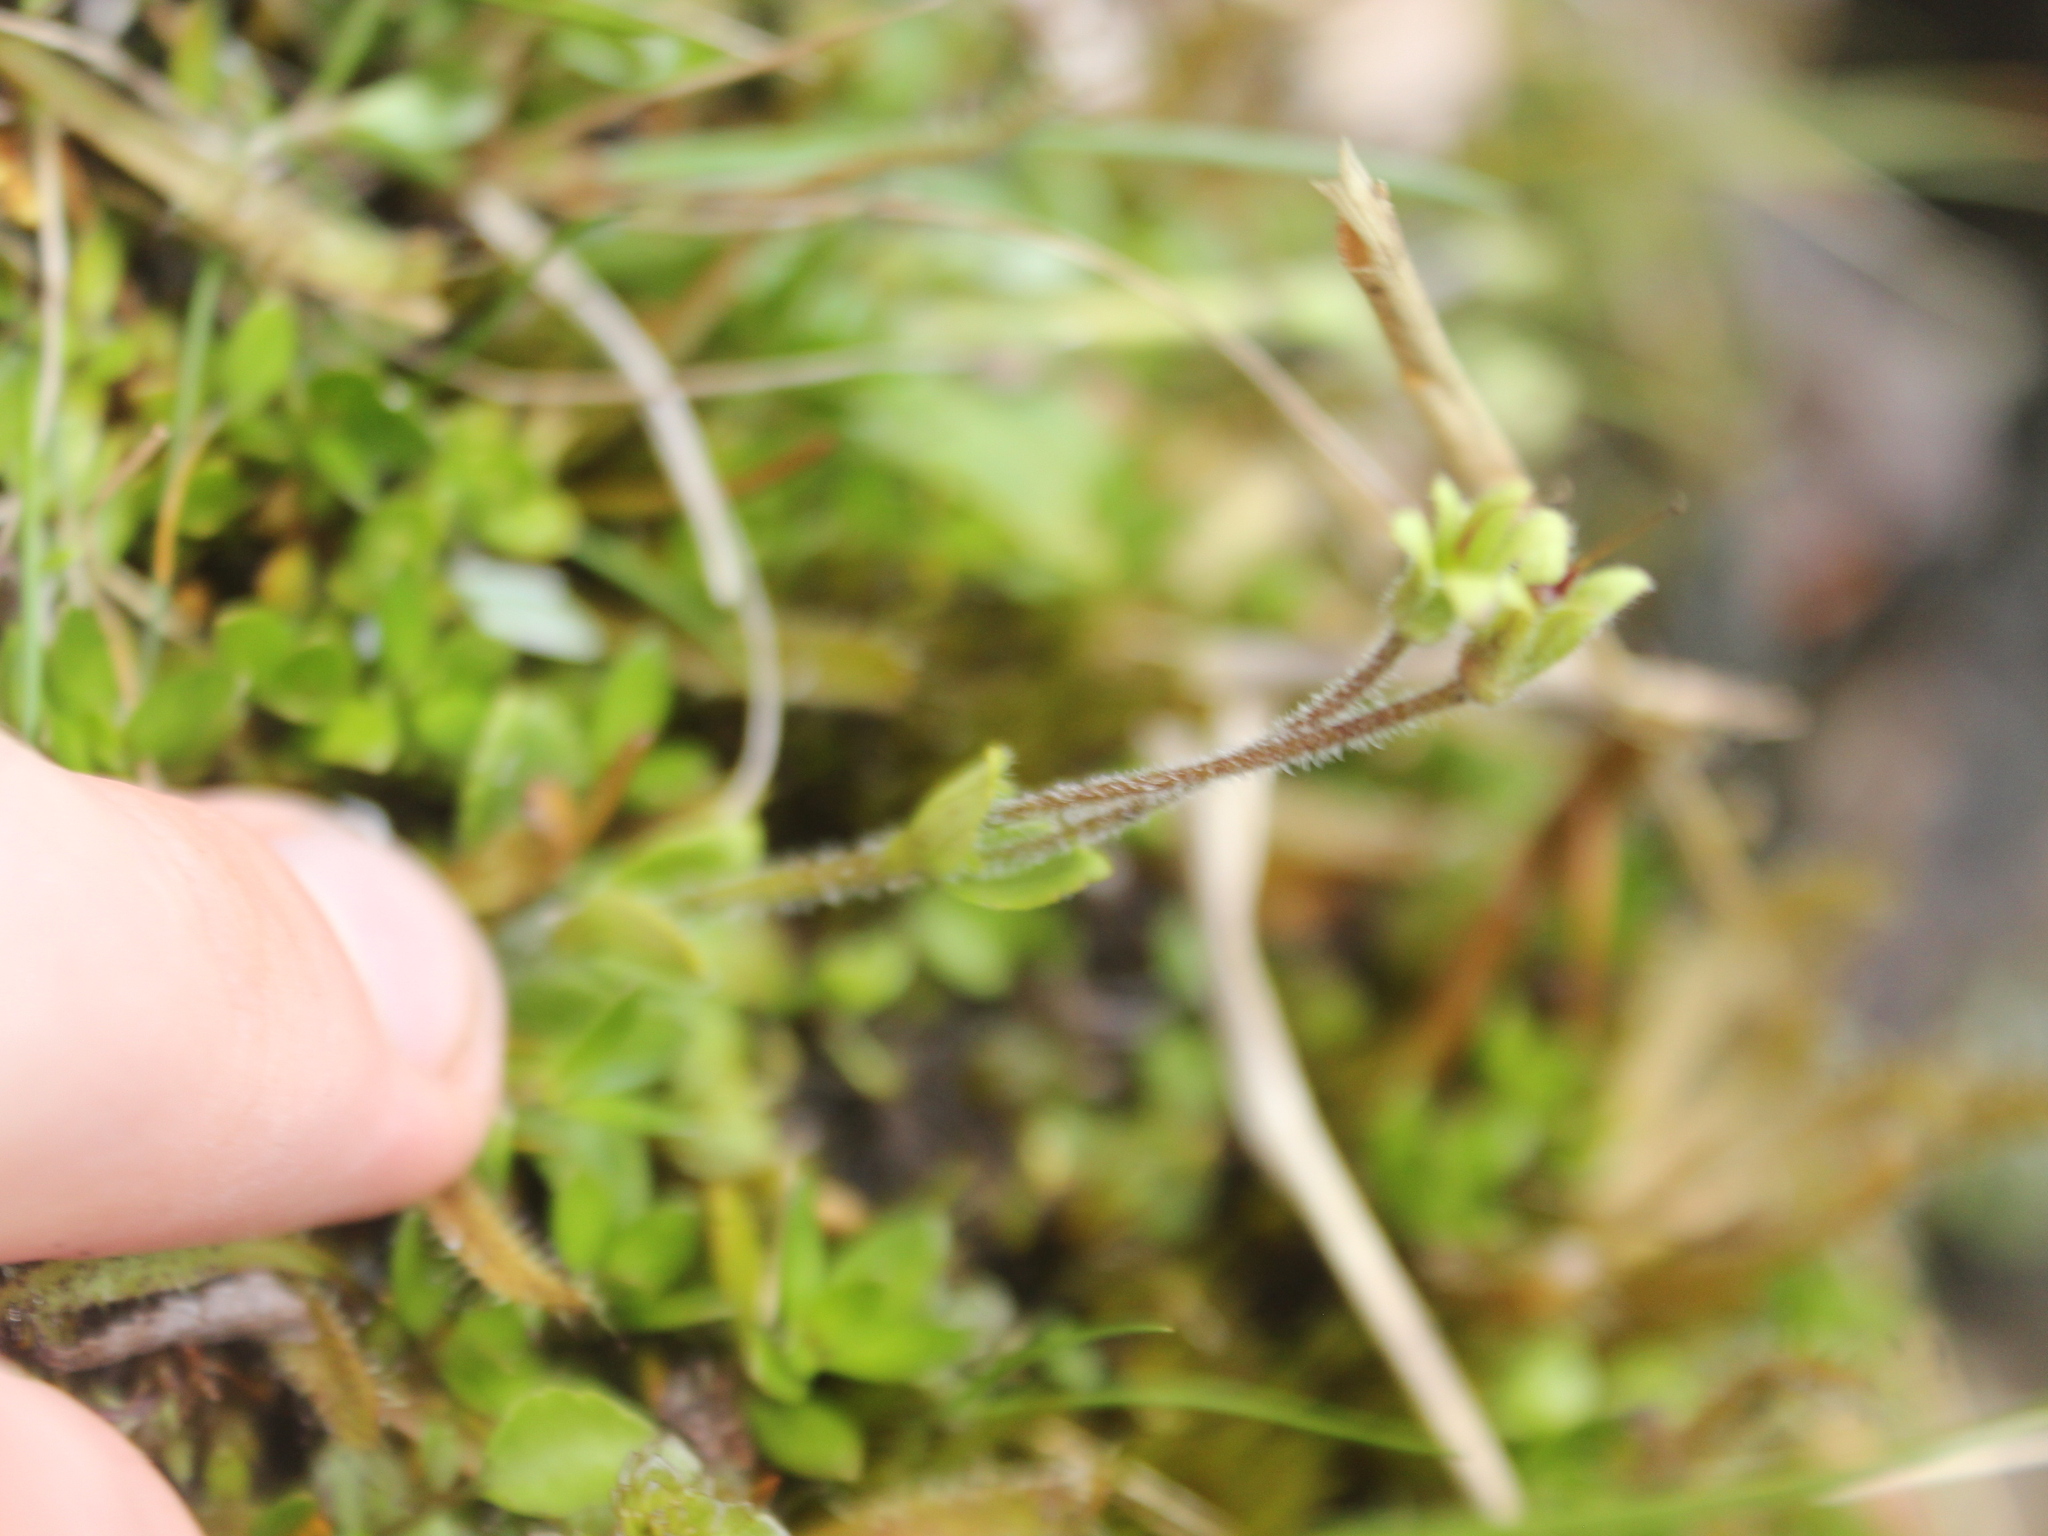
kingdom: Plantae
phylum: Tracheophyta
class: Magnoliopsida
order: Lamiales
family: Plantaginaceae
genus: Ourisia
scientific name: Ourisia macrophylla
